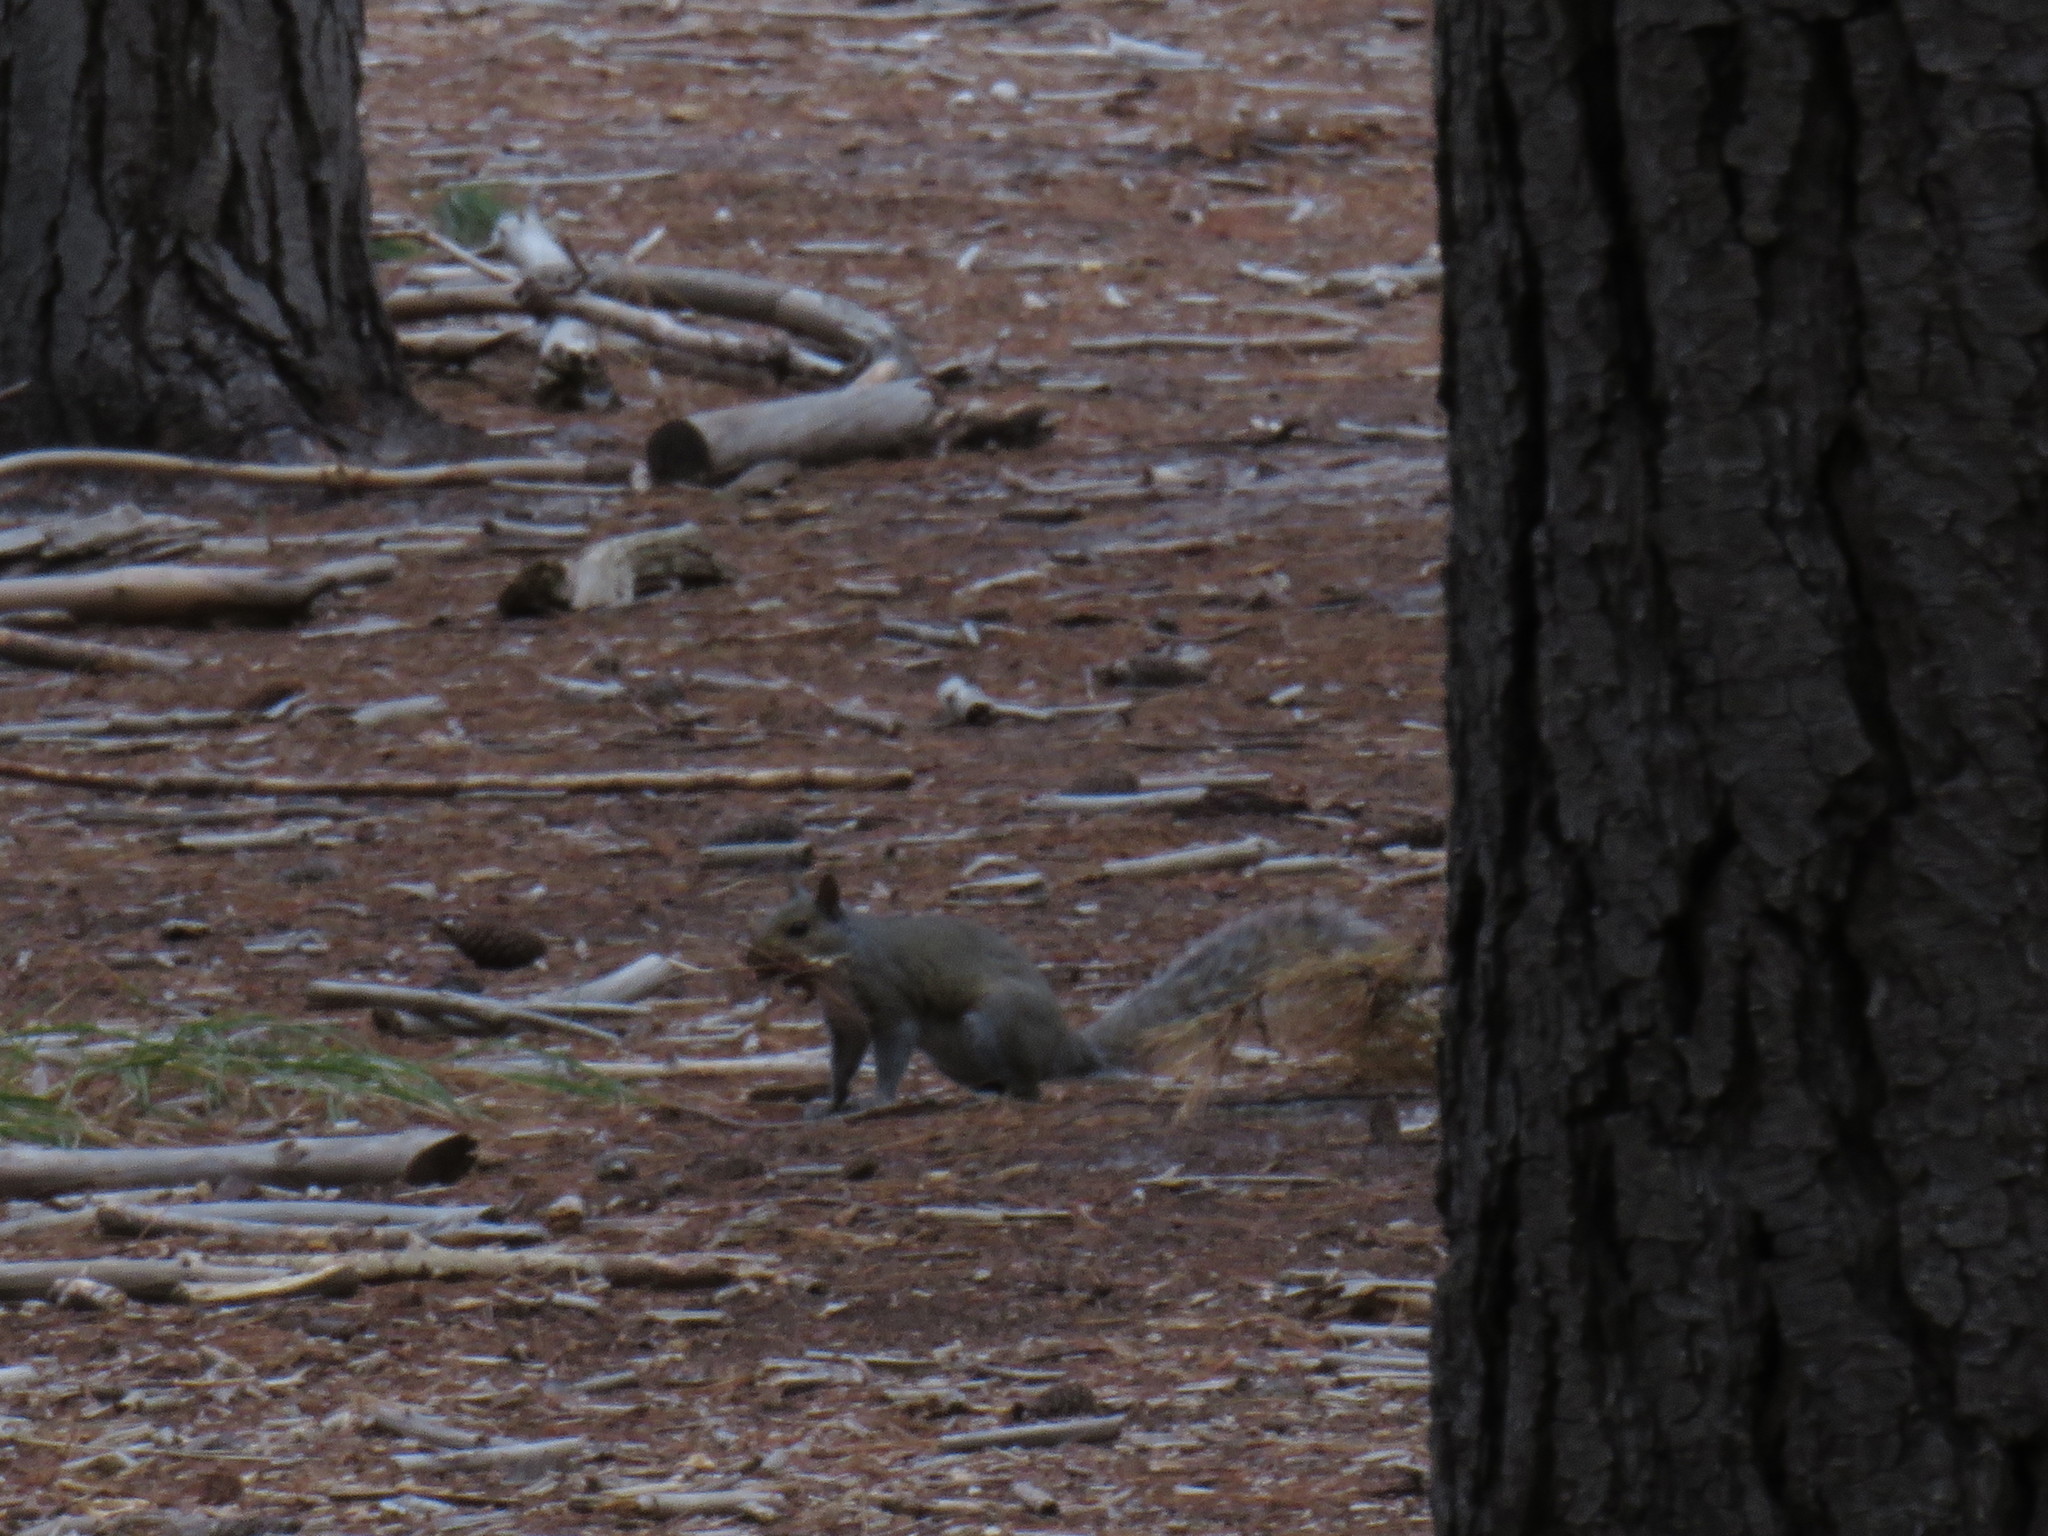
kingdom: Animalia
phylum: Chordata
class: Mammalia
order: Rodentia
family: Sciuridae
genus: Sciurus
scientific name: Sciurus carolinensis
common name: Eastern gray squirrel
